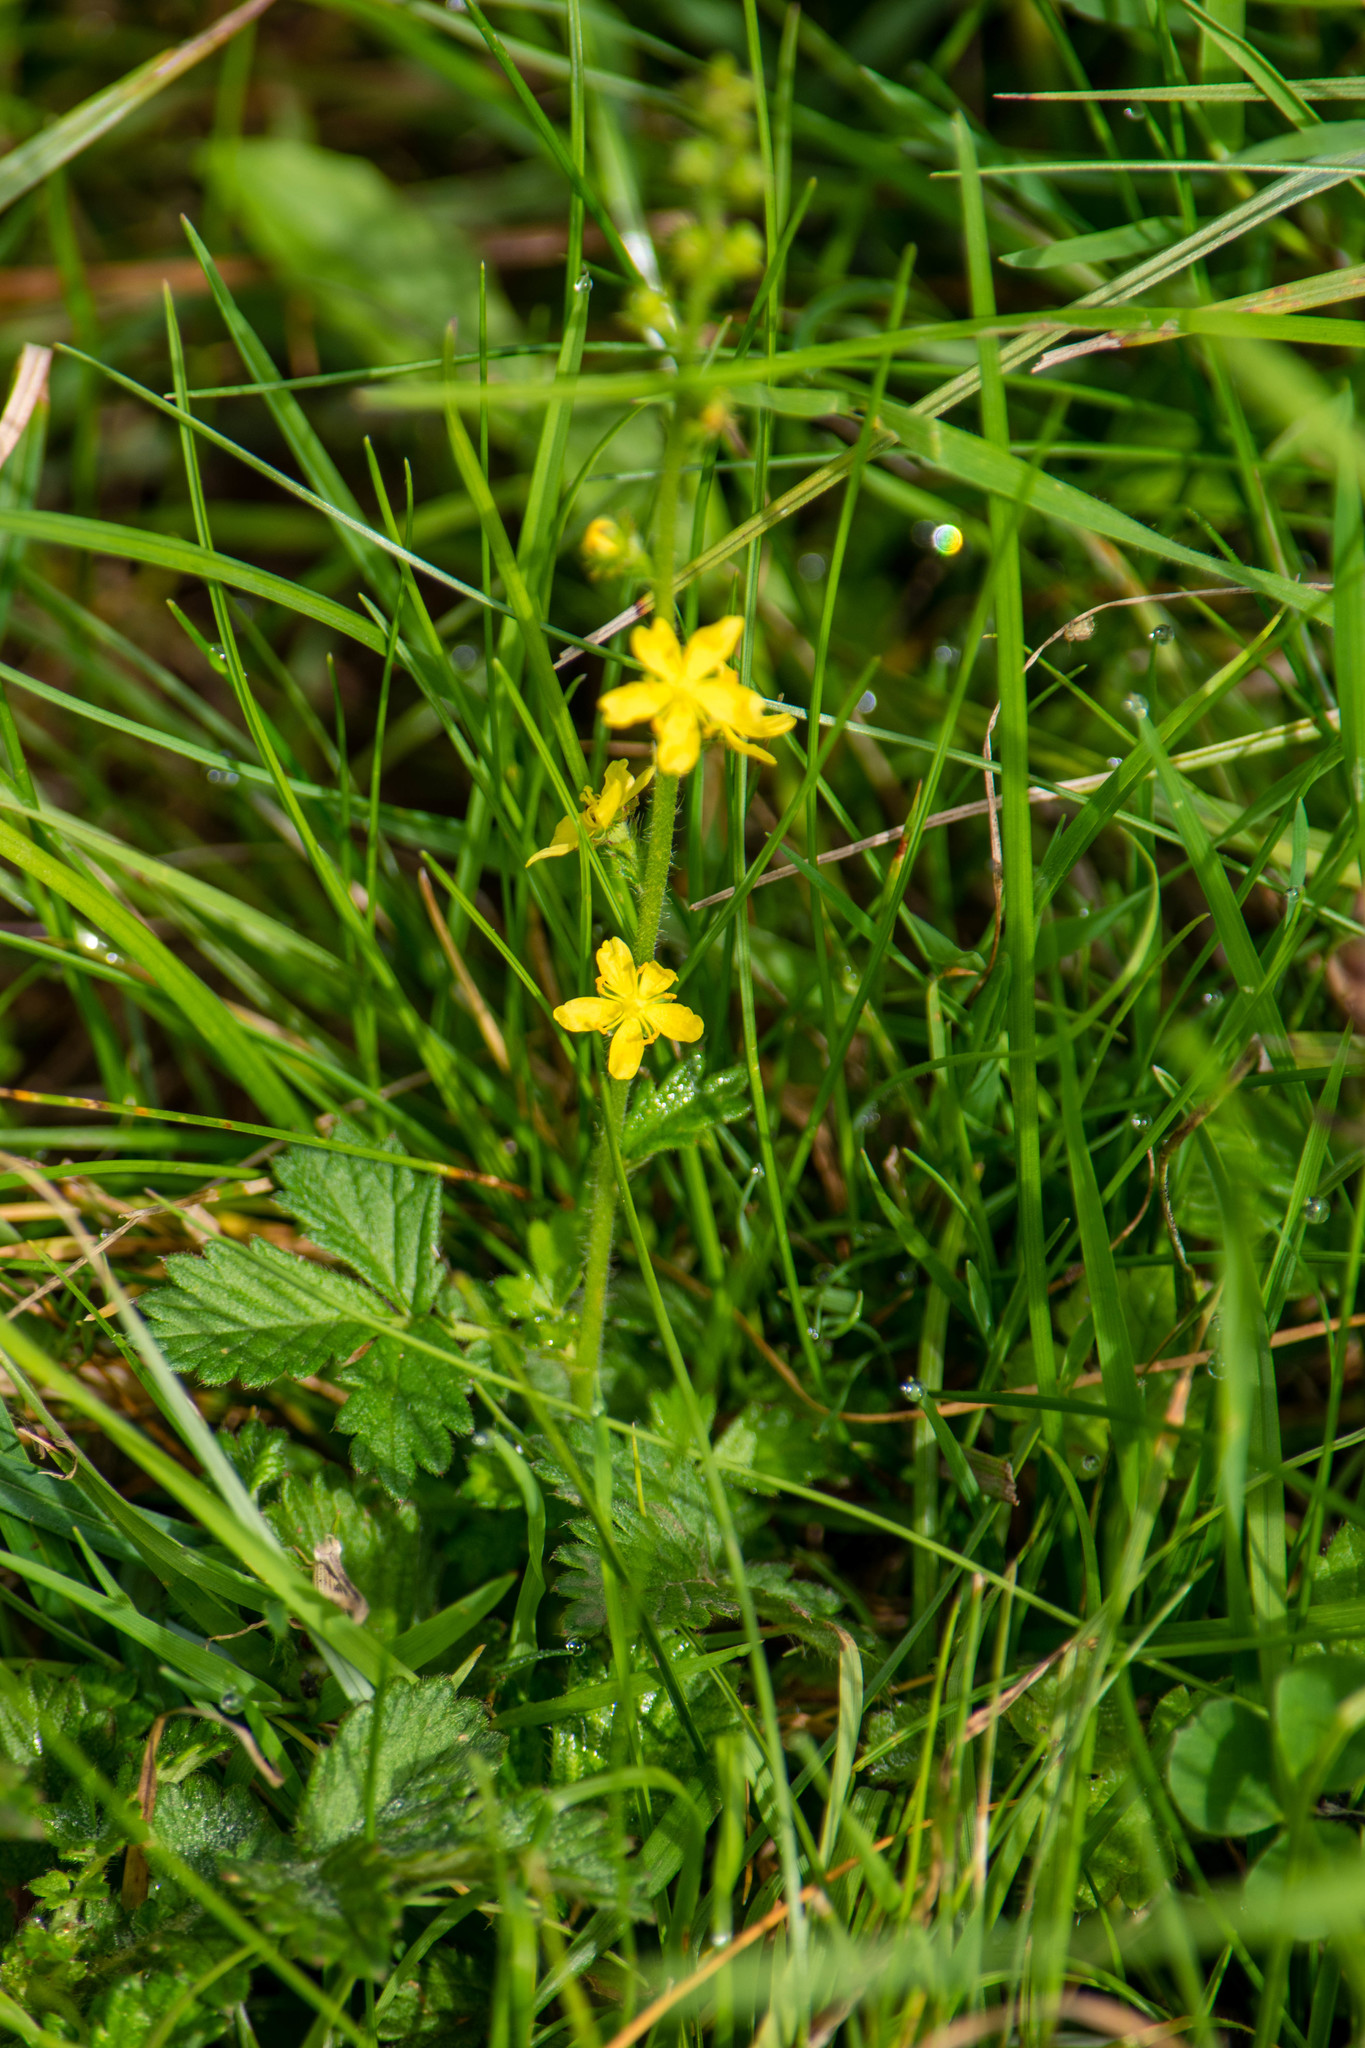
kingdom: Plantae
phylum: Tracheophyta
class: Magnoliopsida
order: Rosales
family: Rosaceae
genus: Agrimonia
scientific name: Agrimonia eupatoria
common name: Agrimony
